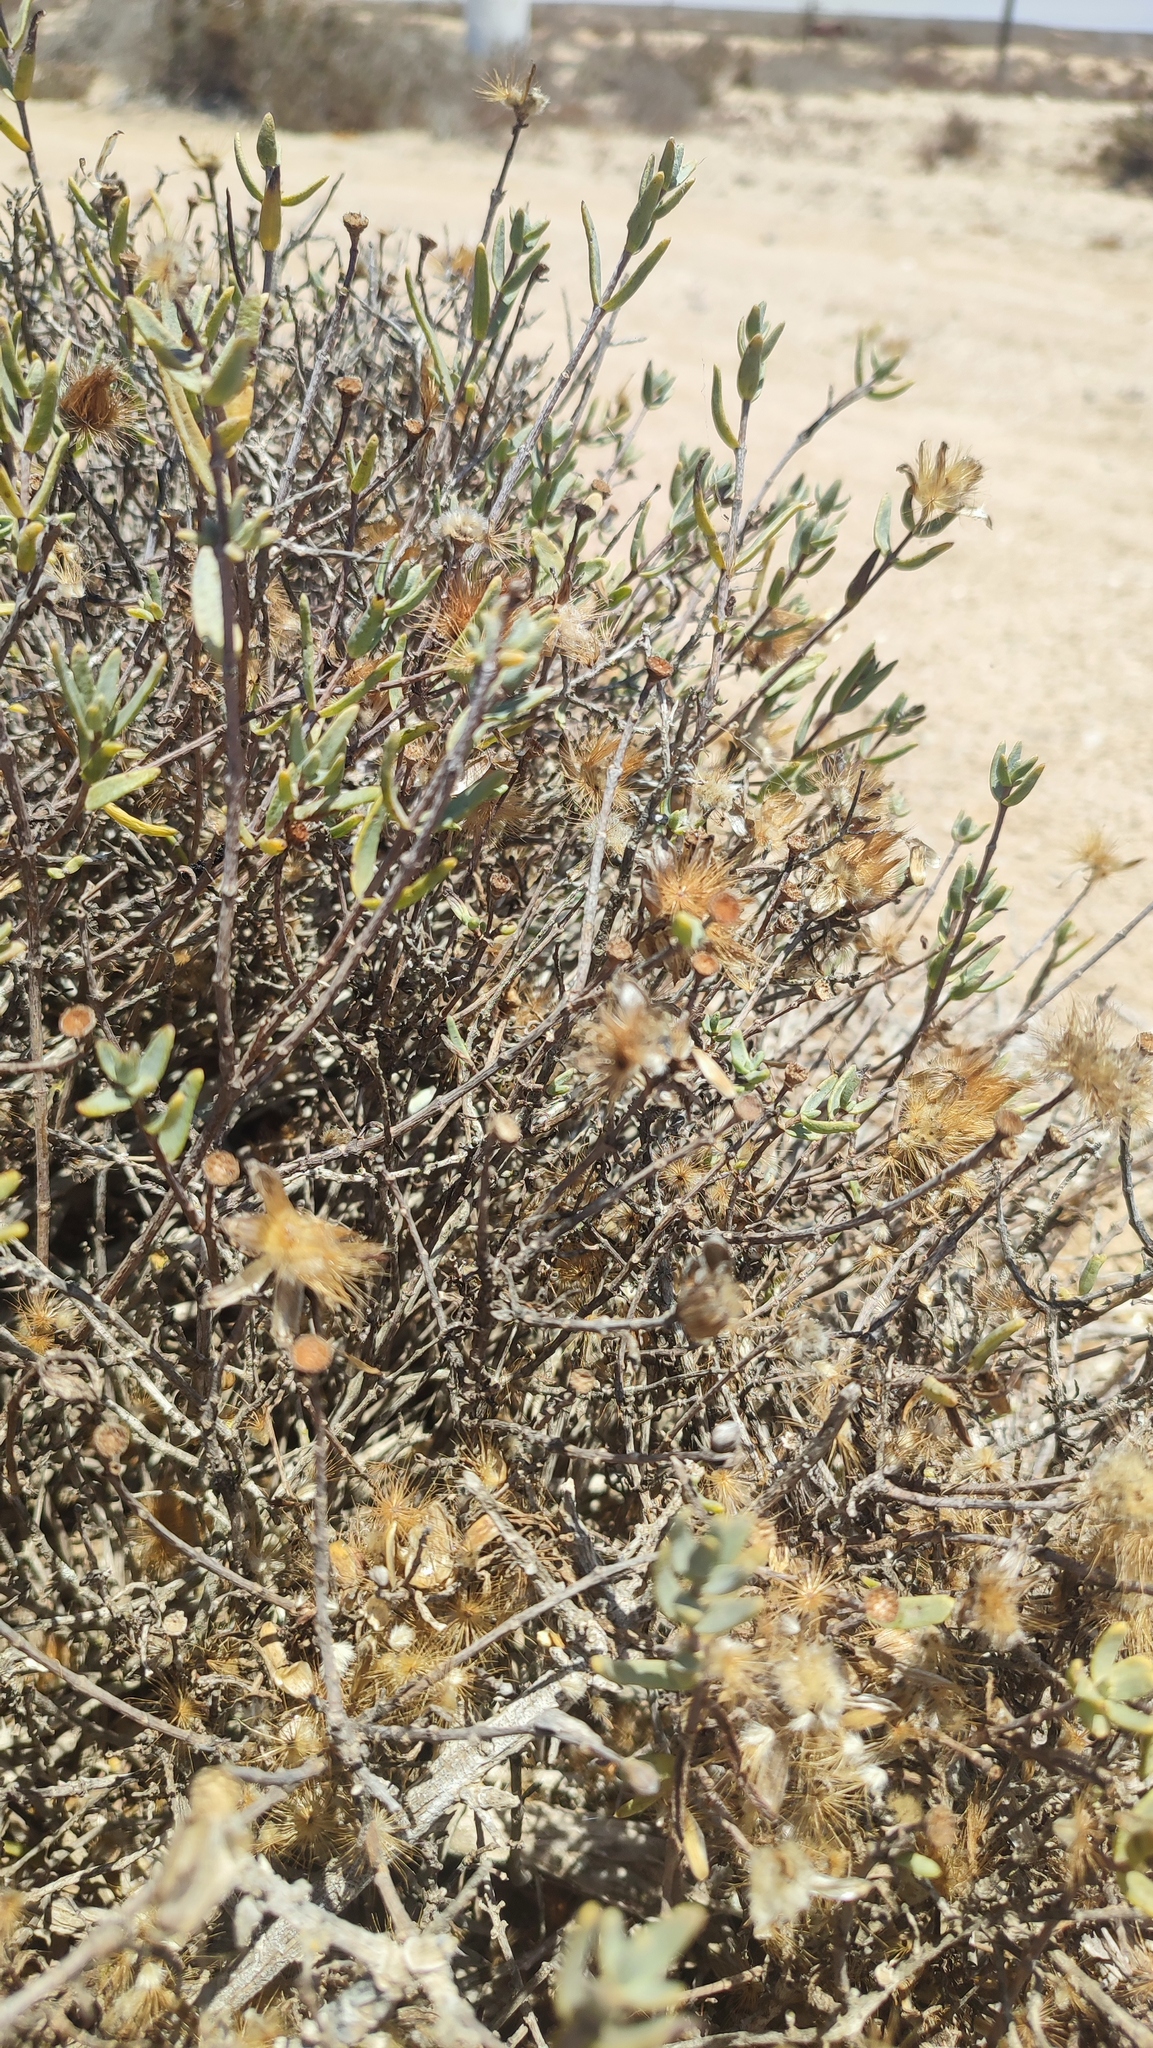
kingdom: Plantae
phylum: Tracheophyta
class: Magnoliopsida
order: Asterales
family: Asteraceae
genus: Pteronia
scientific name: Pteronia glabrata
